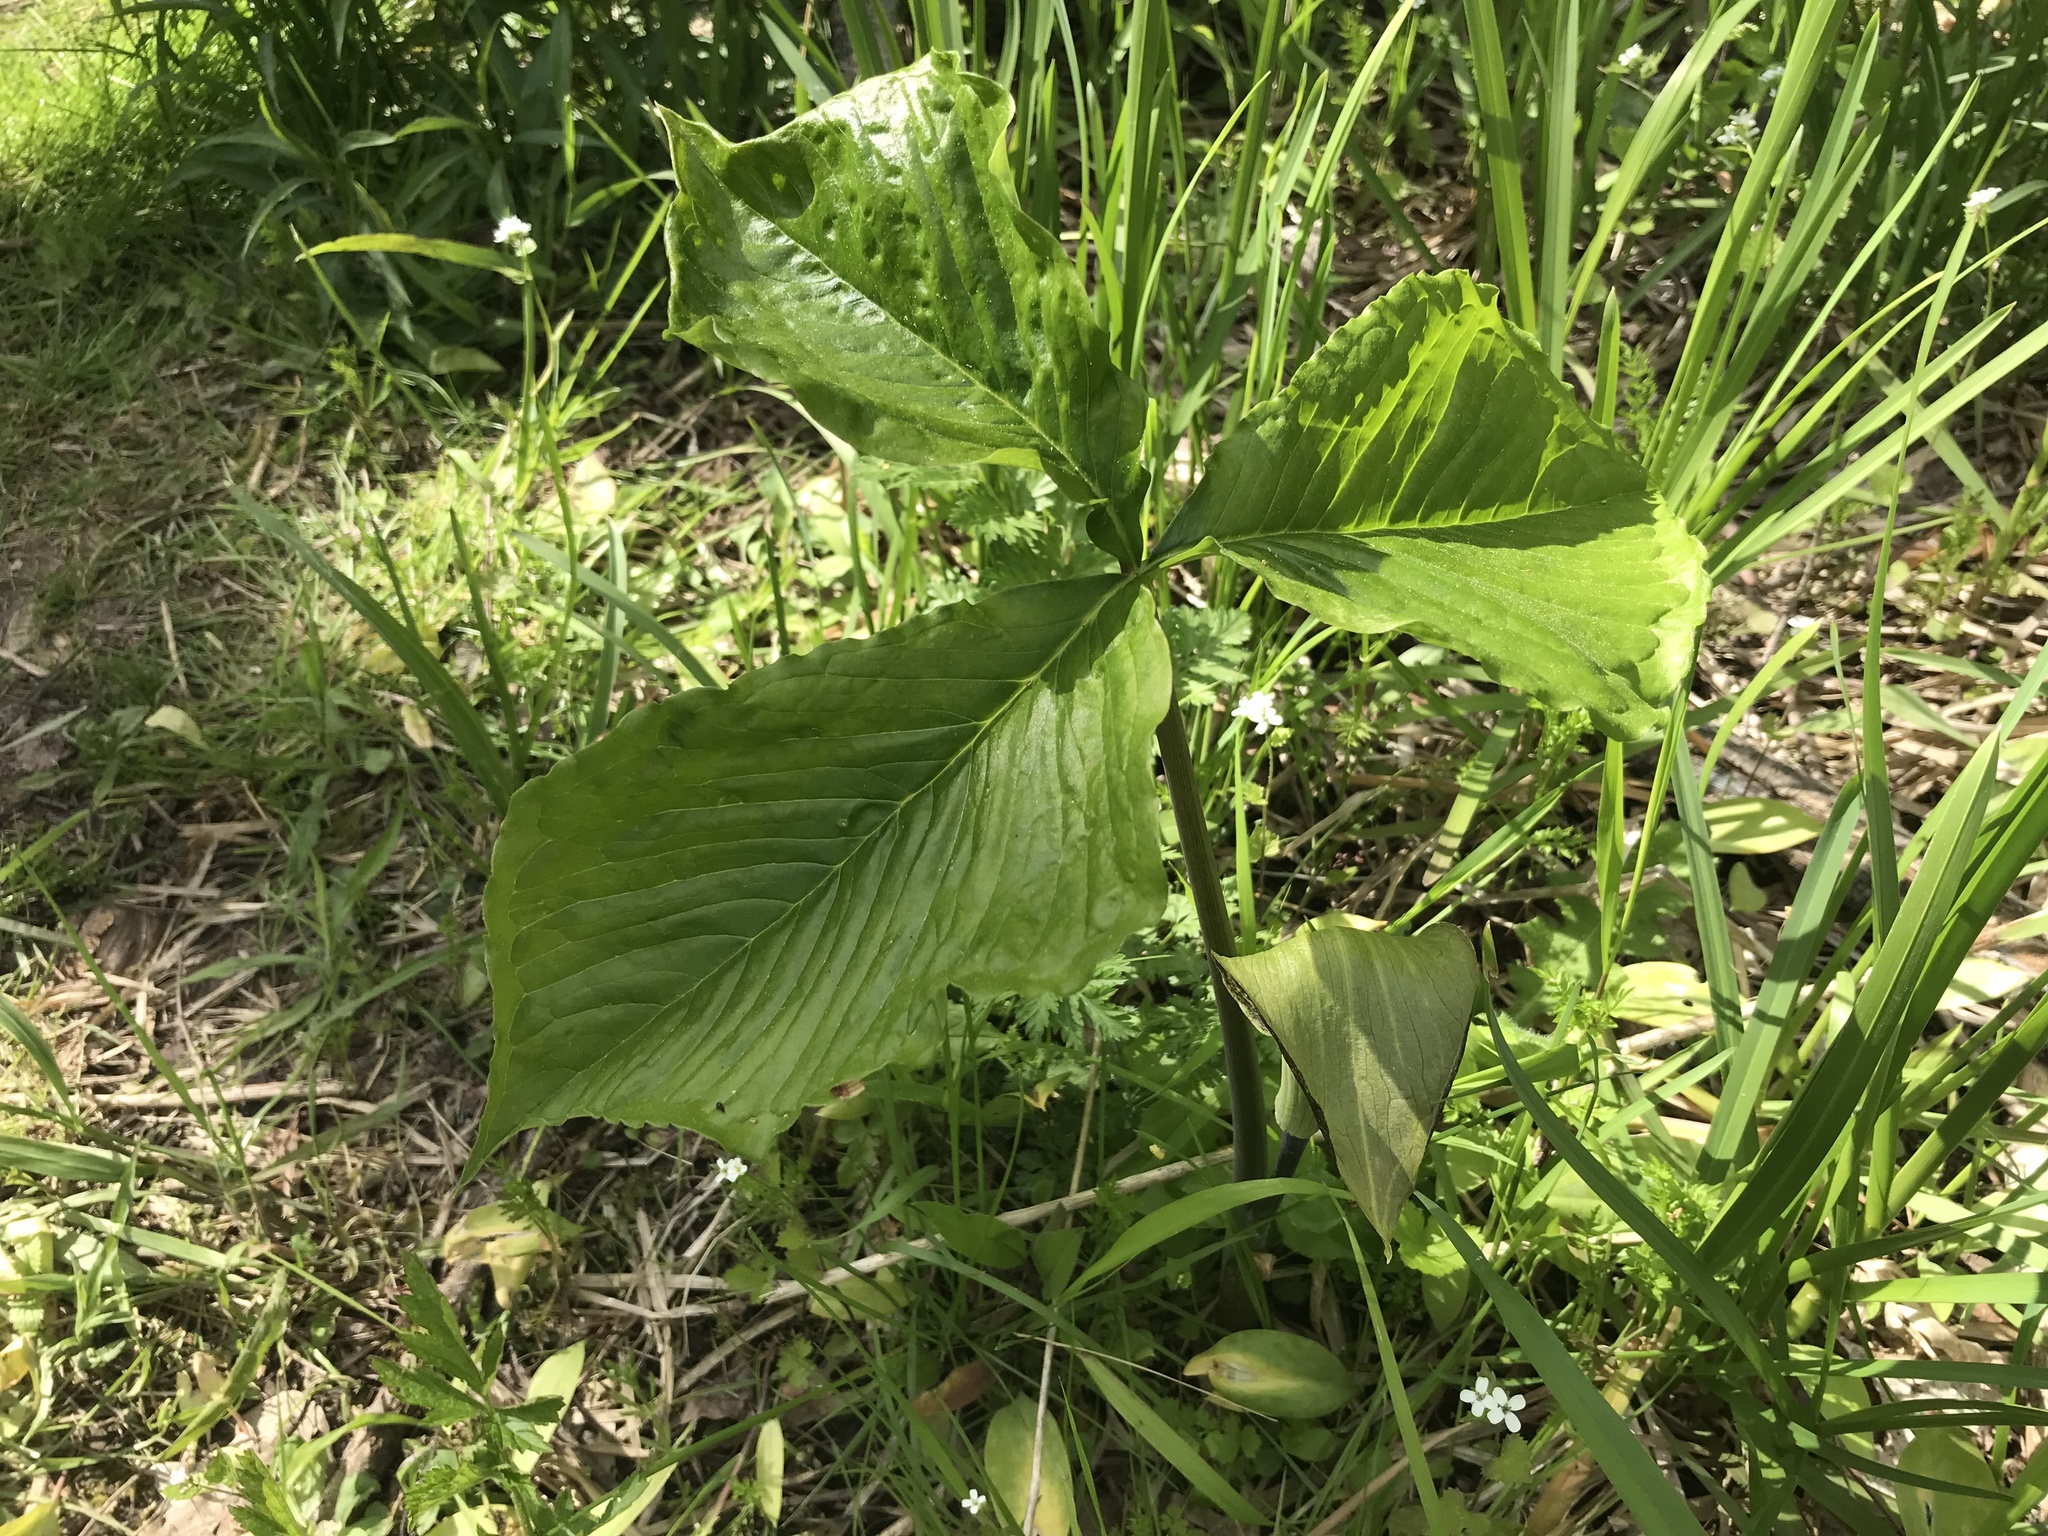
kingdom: Plantae
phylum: Tracheophyta
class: Liliopsida
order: Alismatales
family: Araceae
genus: Arisaema
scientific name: Arisaema triphyllum
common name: Jack-in-the-pulpit
